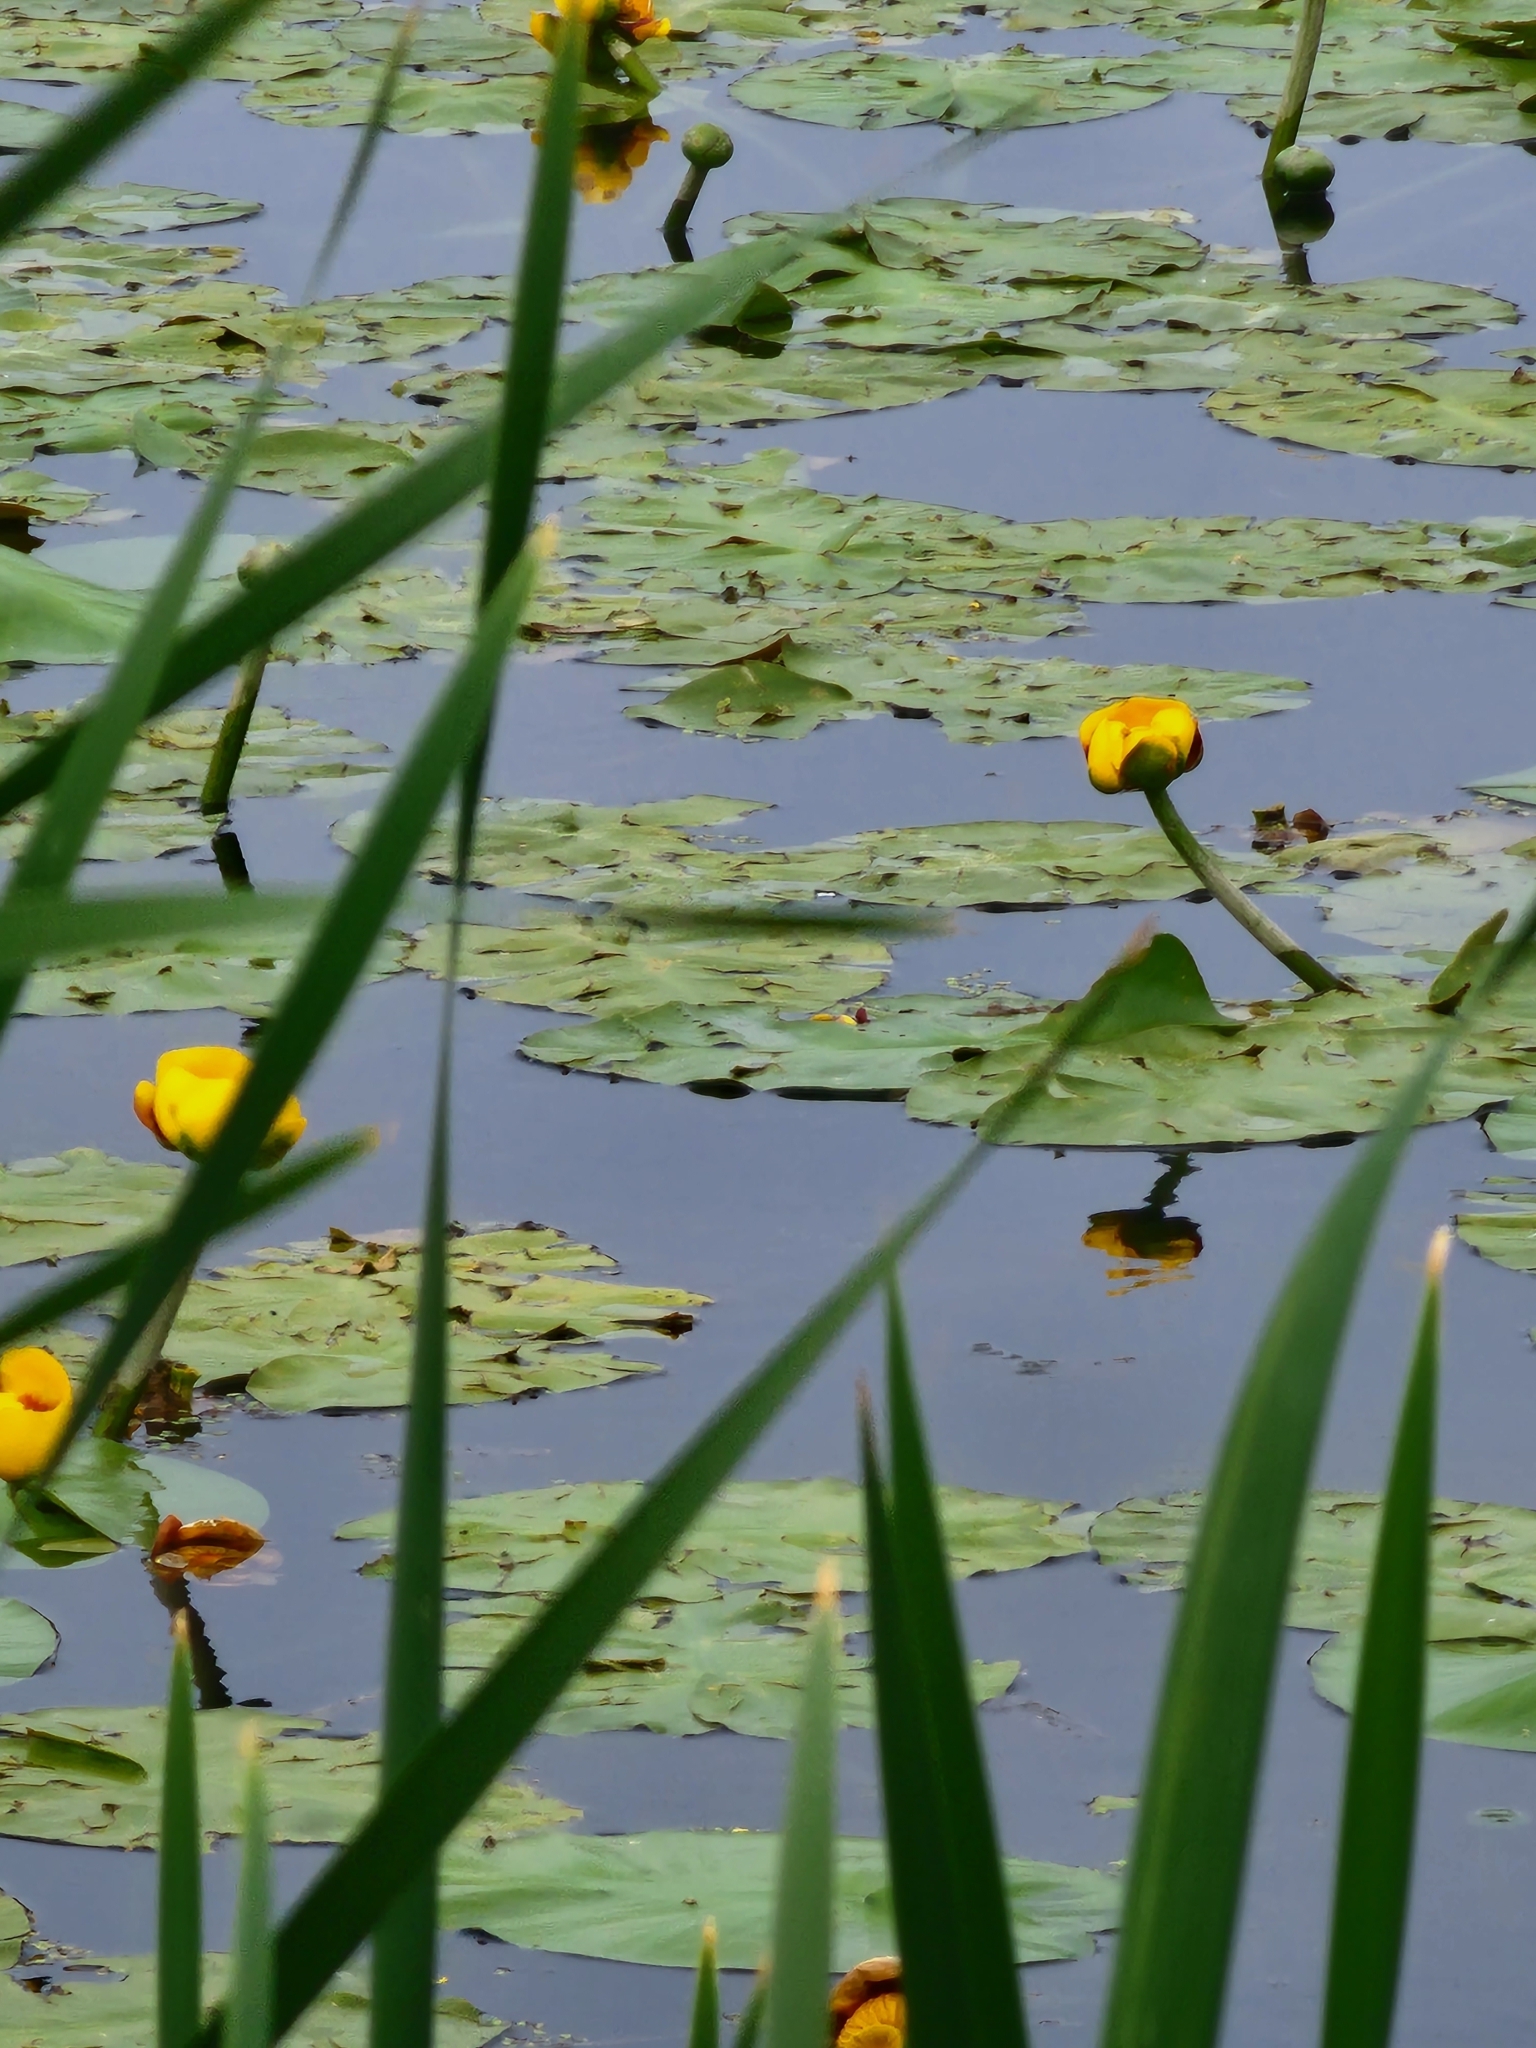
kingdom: Plantae
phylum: Tracheophyta
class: Magnoliopsida
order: Nymphaeales
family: Nymphaeaceae
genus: Nuphar
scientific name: Nuphar variegata
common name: Beaver-root
